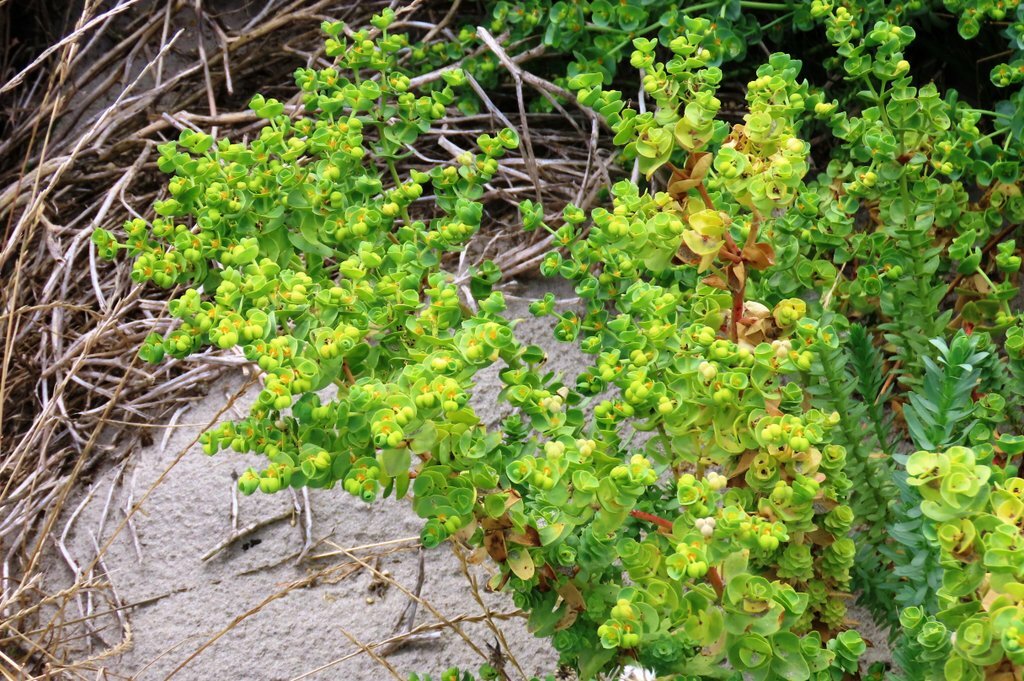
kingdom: Plantae
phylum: Tracheophyta
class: Magnoliopsida
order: Malpighiales
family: Euphorbiaceae
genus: Euphorbia
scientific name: Euphorbia paralias
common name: Sea spurge
